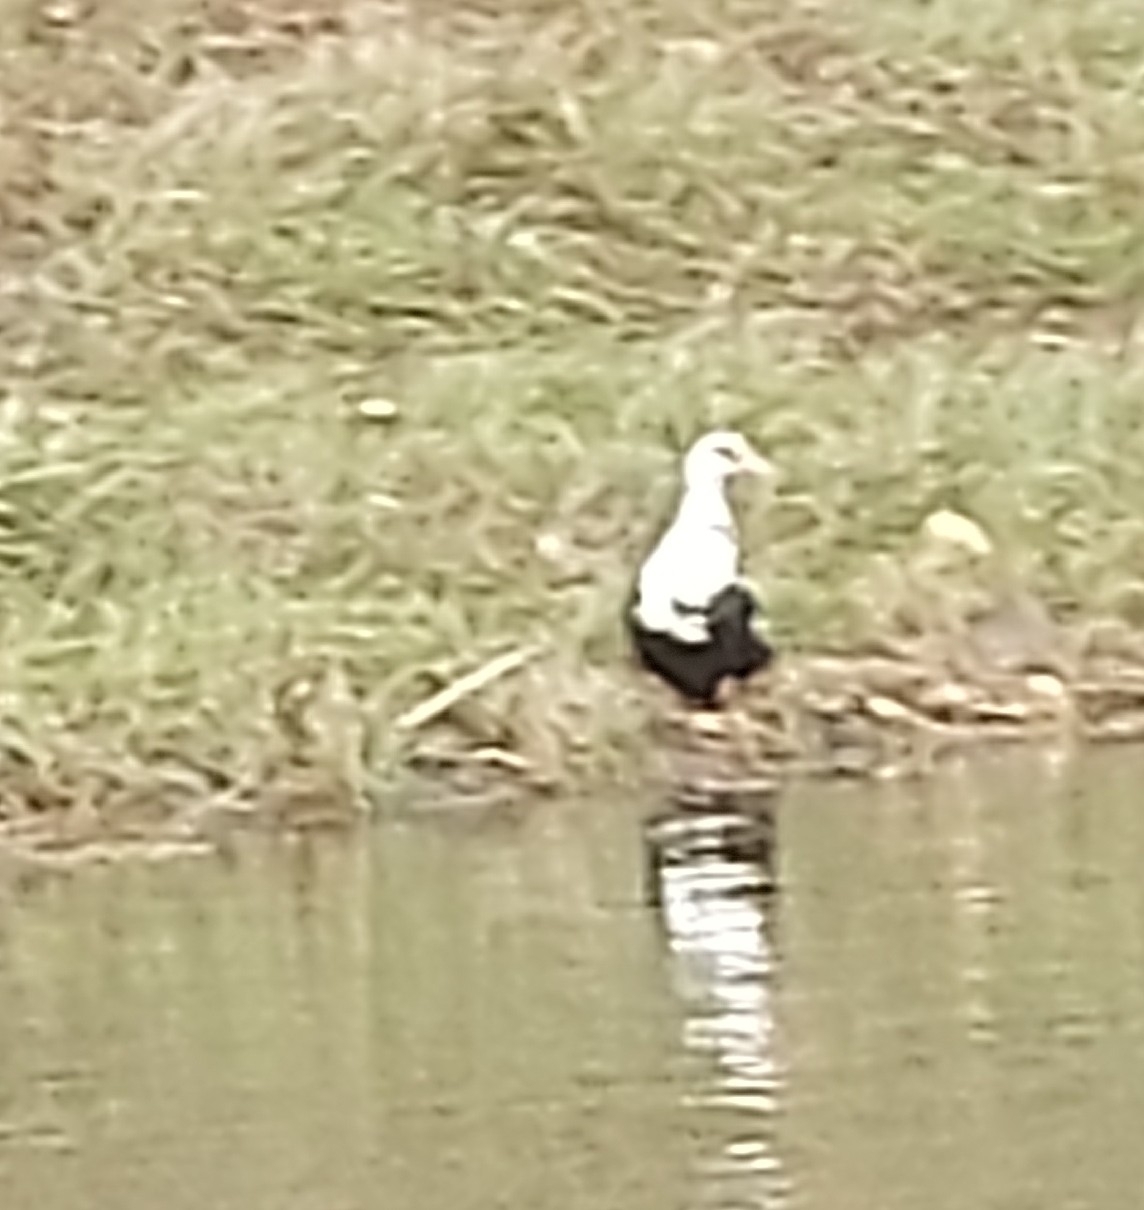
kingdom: Animalia
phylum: Chordata
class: Aves
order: Anseriformes
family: Anatidae
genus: Anas
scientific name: Anas platyrhynchos
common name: Mallard
